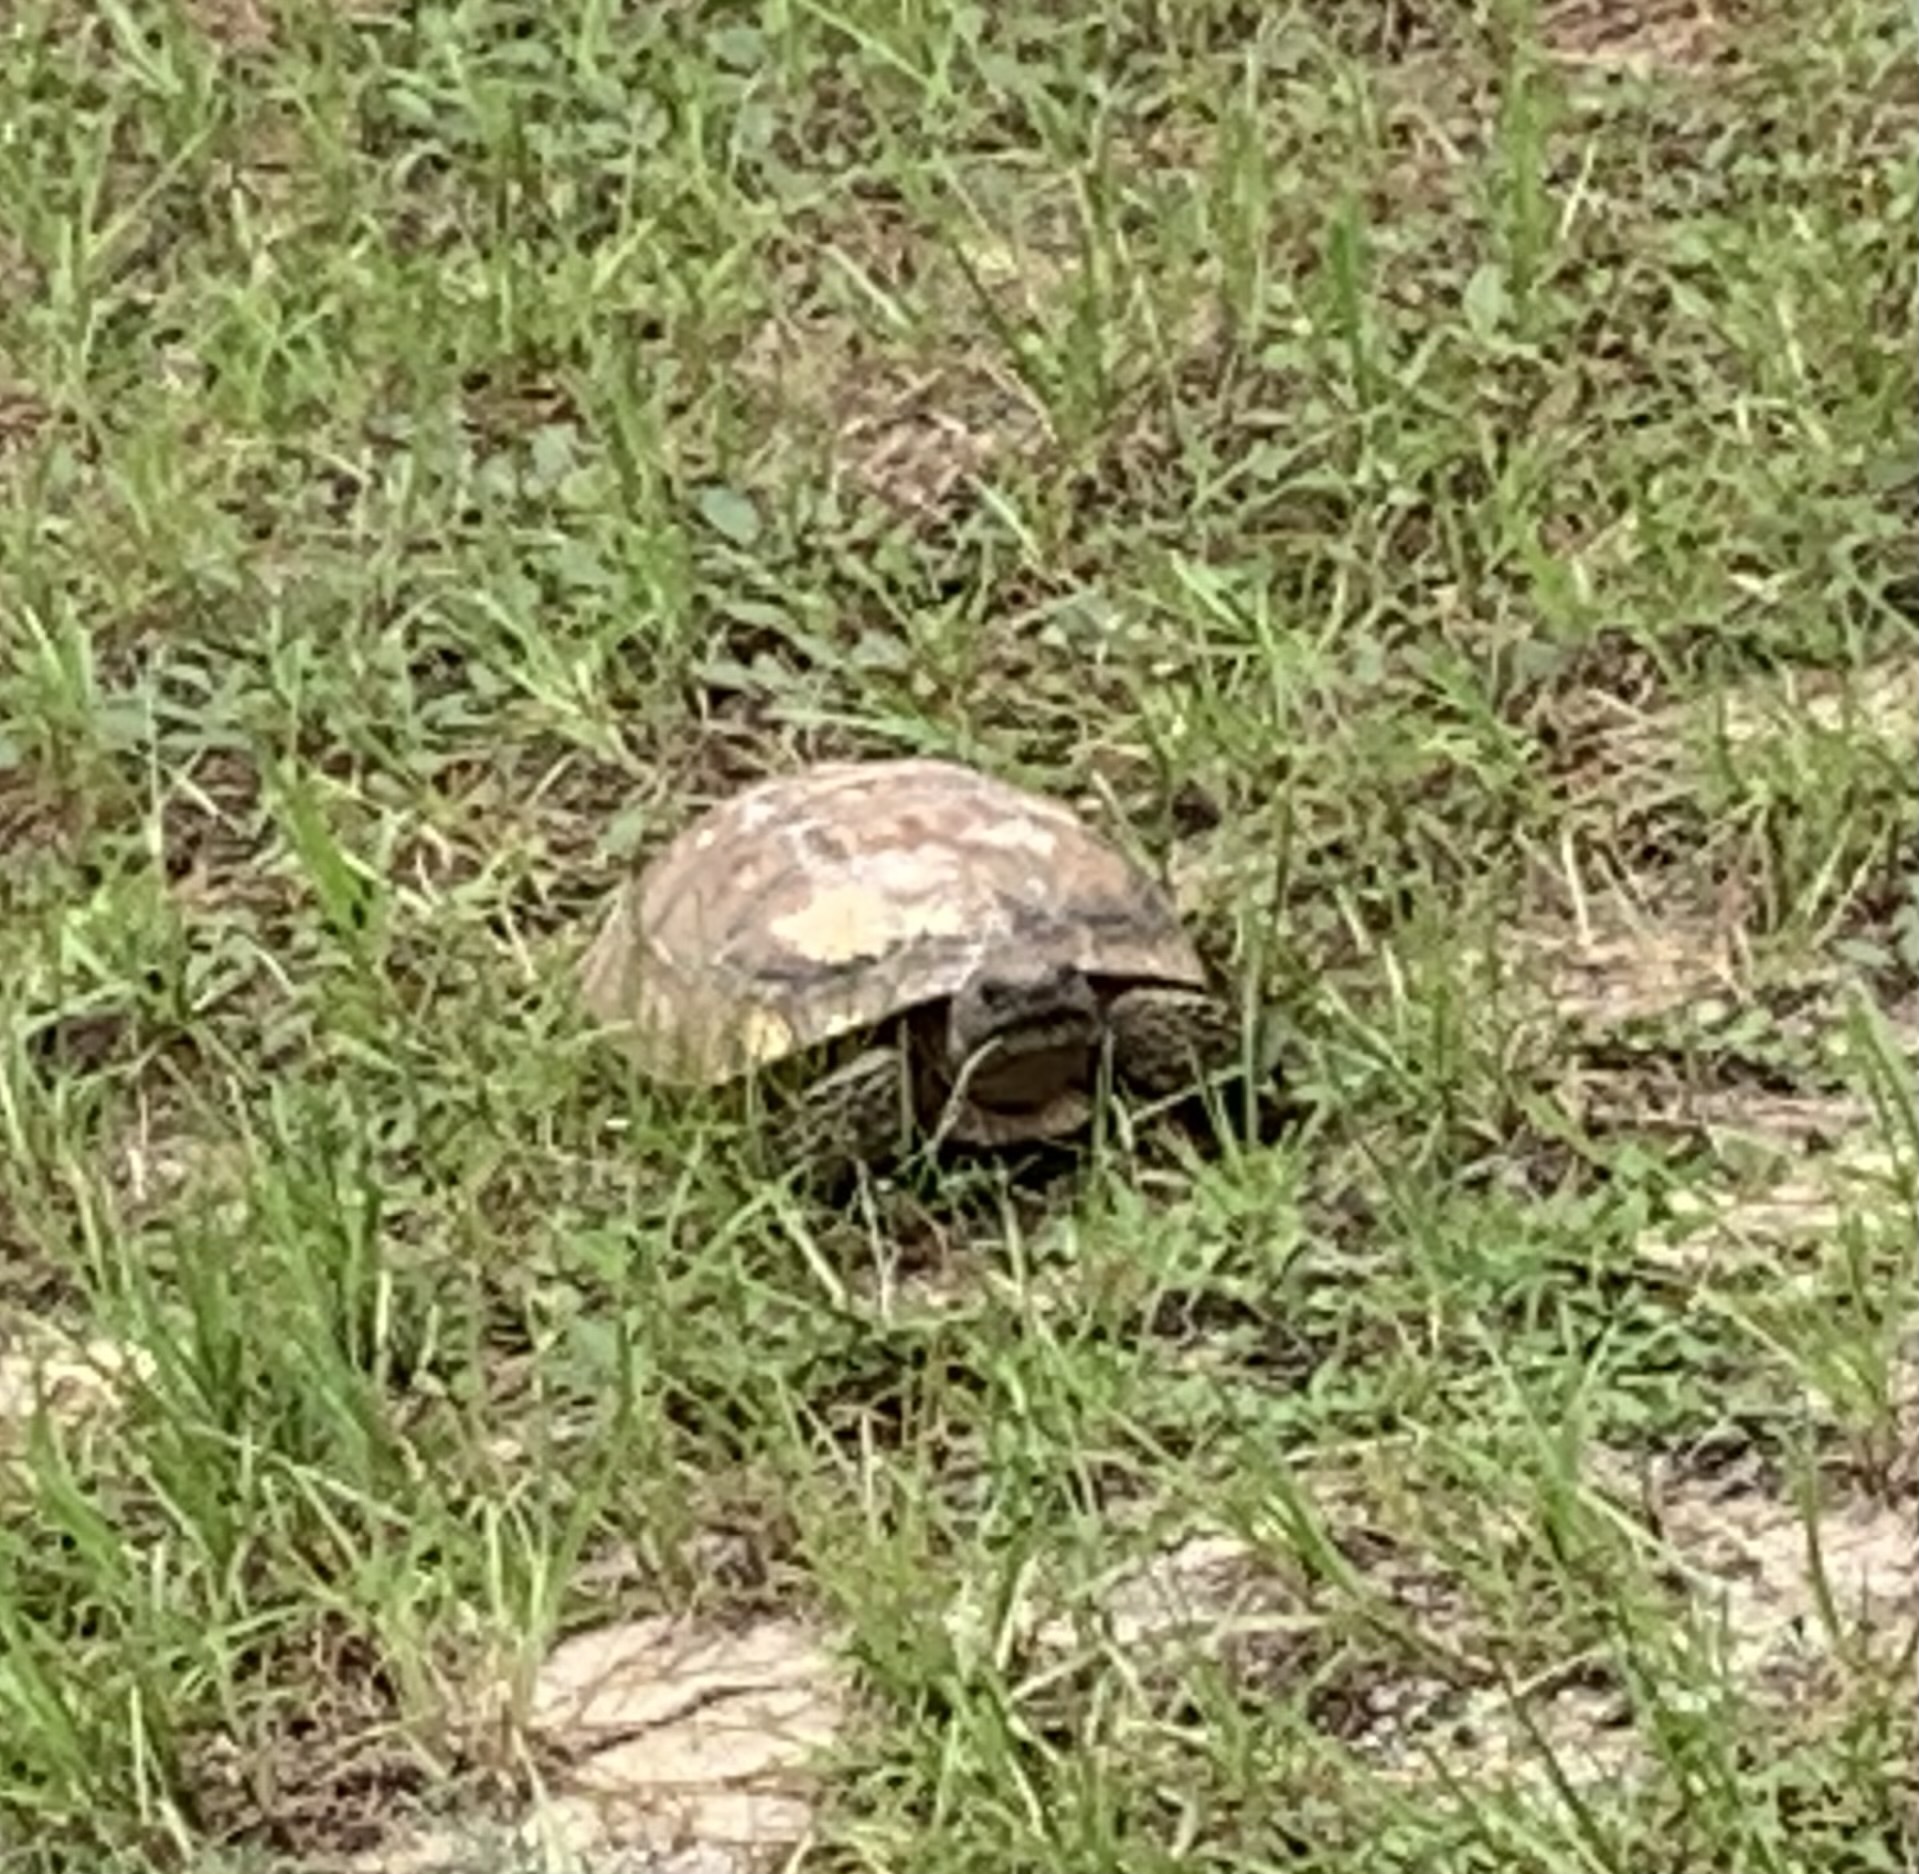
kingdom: Animalia
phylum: Chordata
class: Testudines
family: Testudinidae
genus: Gopherus
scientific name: Gopherus polyphemus
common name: Florida gopher tortoise
